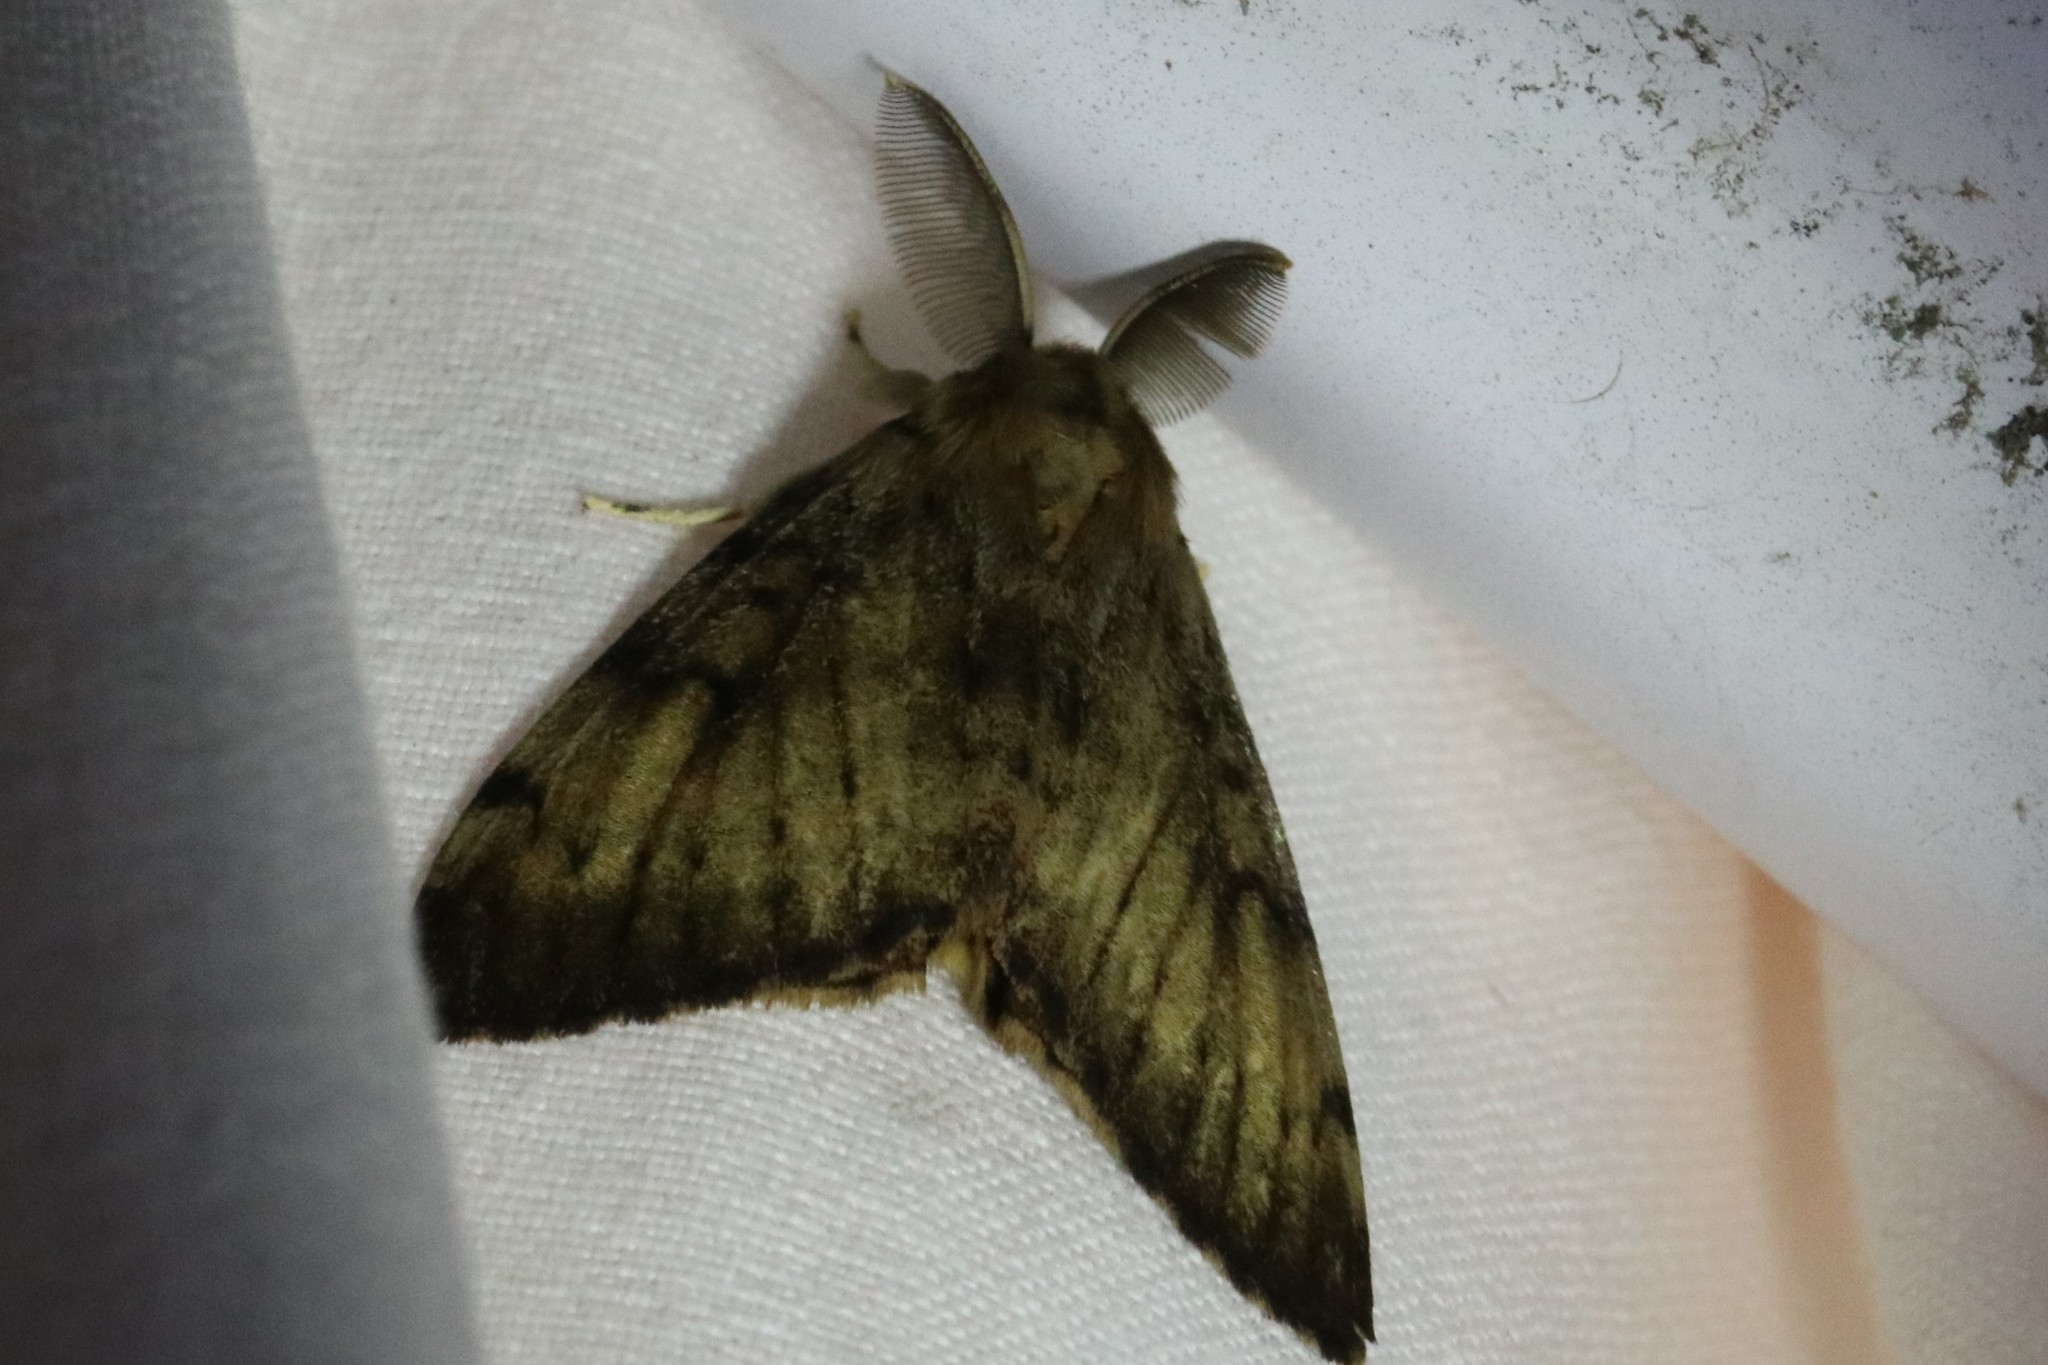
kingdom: Animalia
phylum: Arthropoda
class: Insecta
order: Lepidoptera
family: Erebidae
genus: Lymantria
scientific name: Lymantria dispar
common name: Gypsy moth
